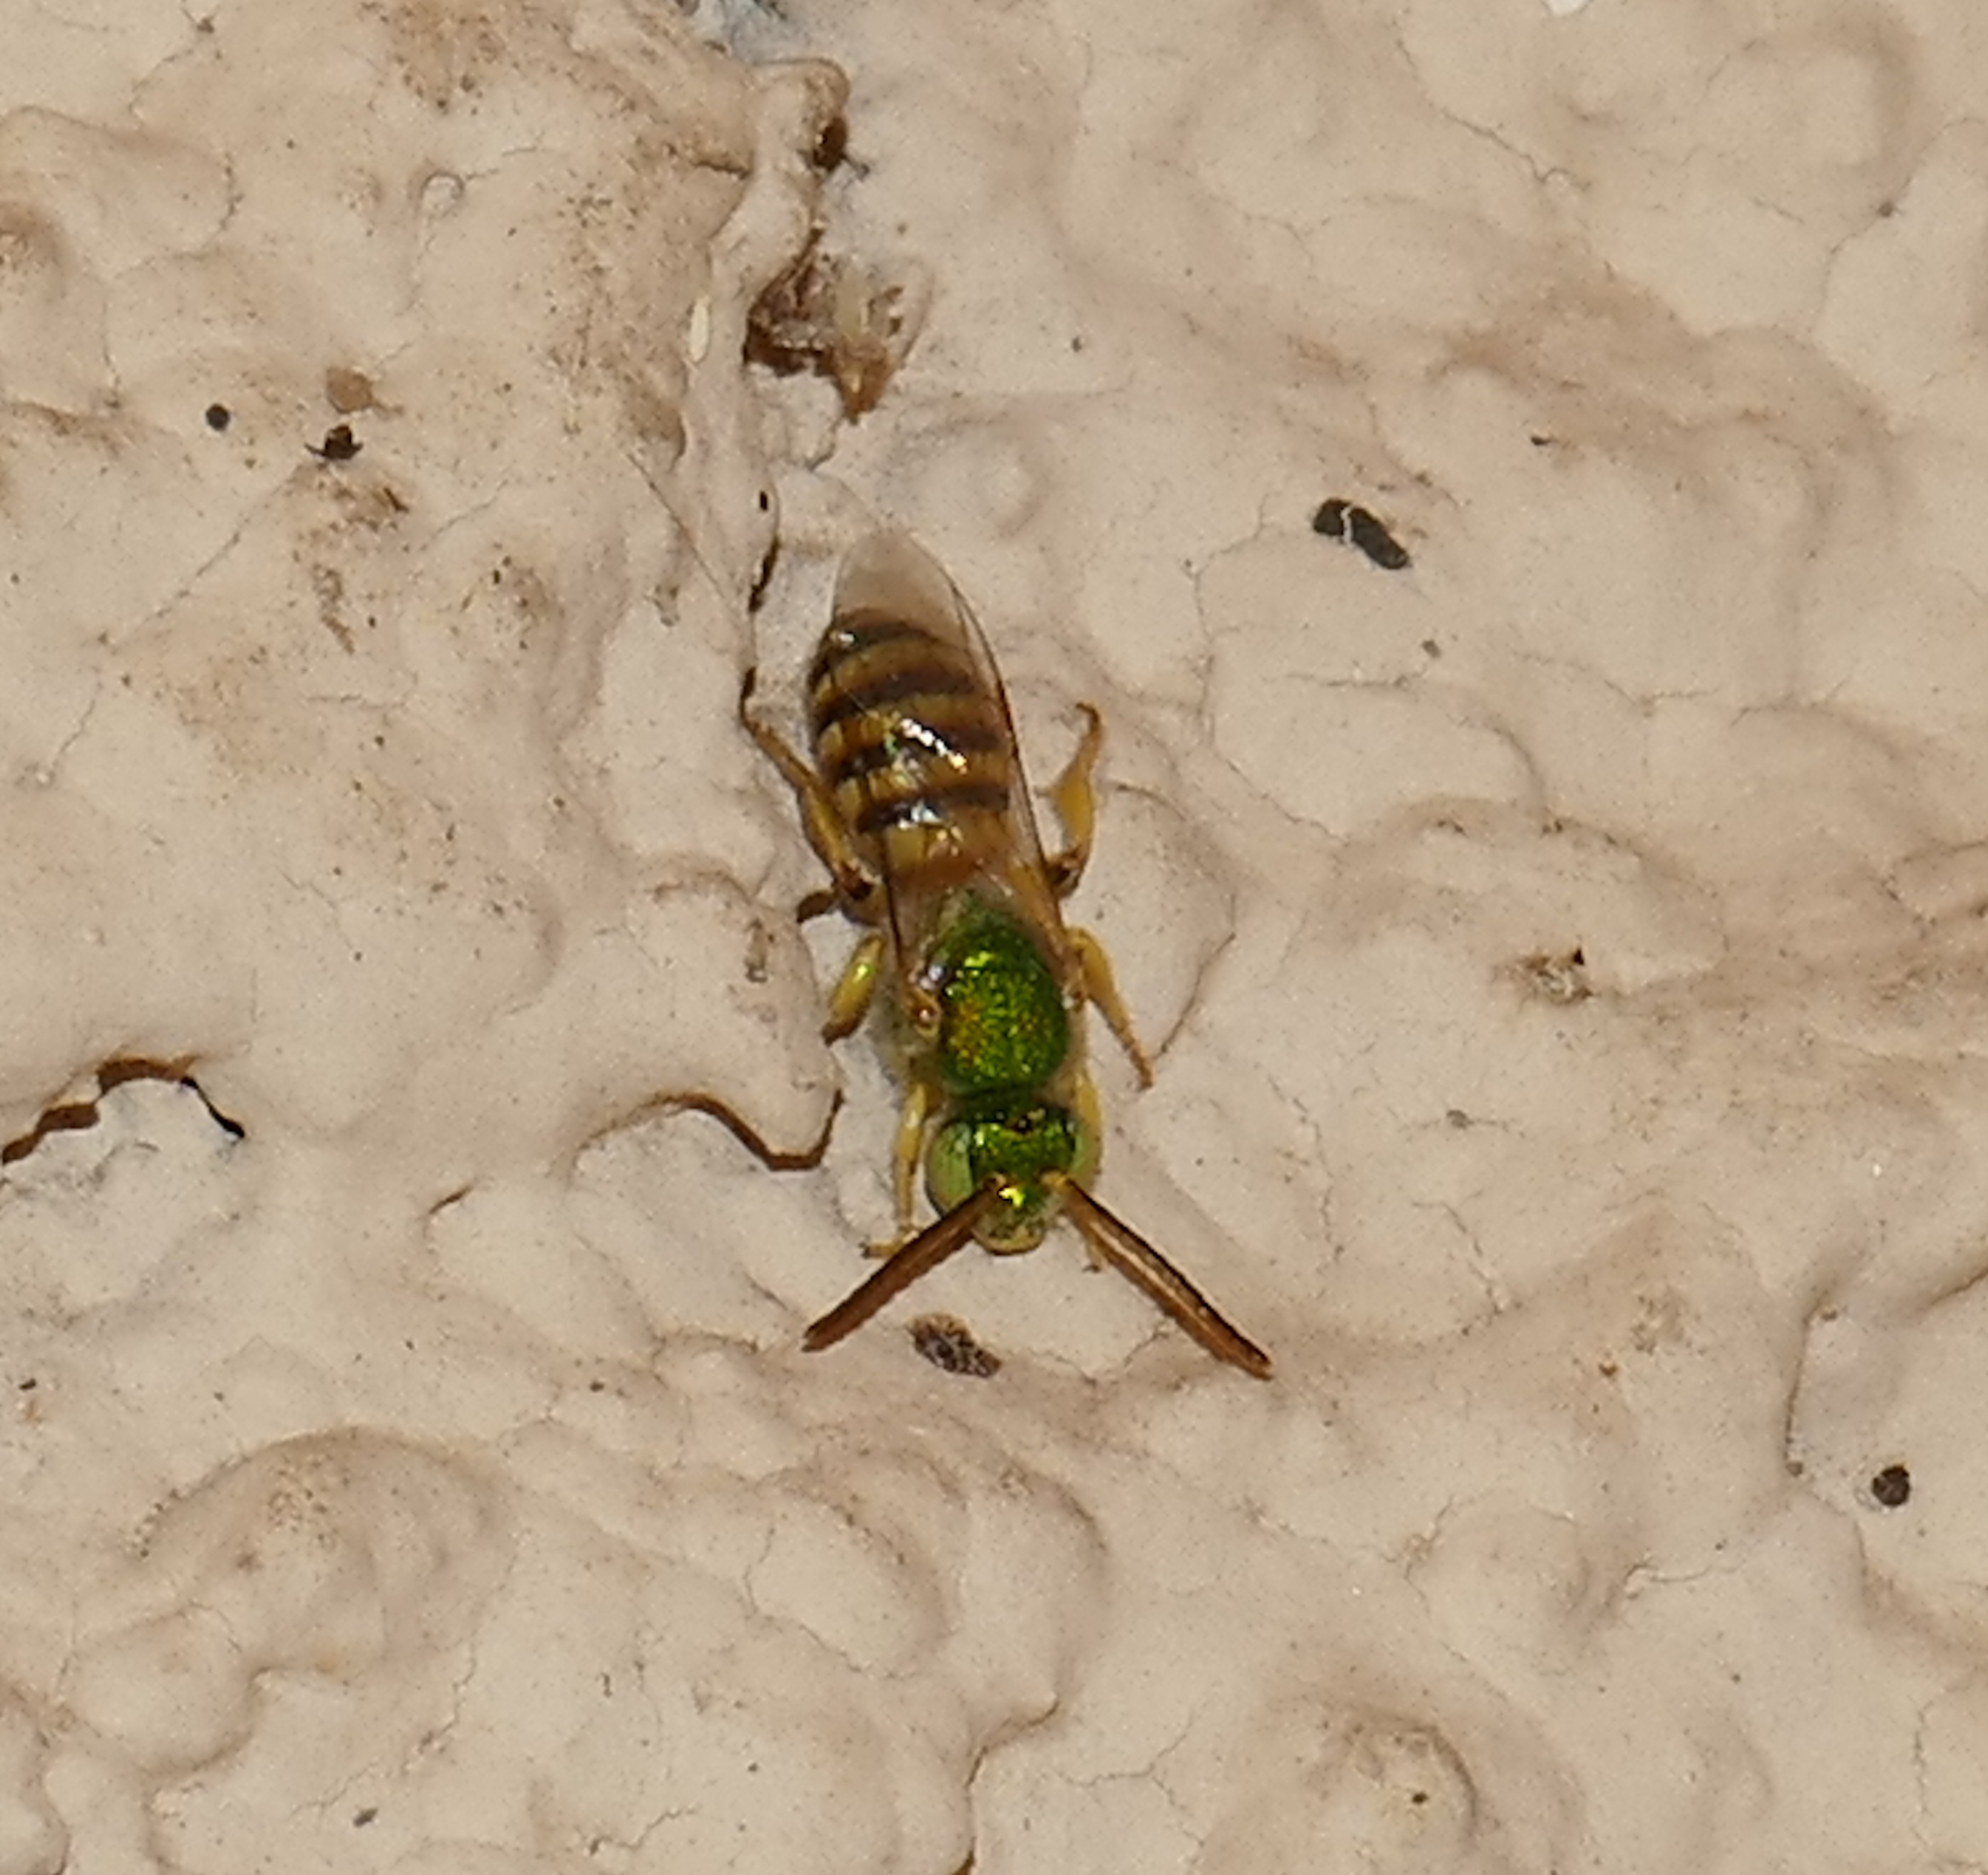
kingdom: Animalia
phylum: Arthropoda
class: Insecta
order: Hymenoptera
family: Halictidae
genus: Agapostemon
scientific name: Agapostemon melliventris
